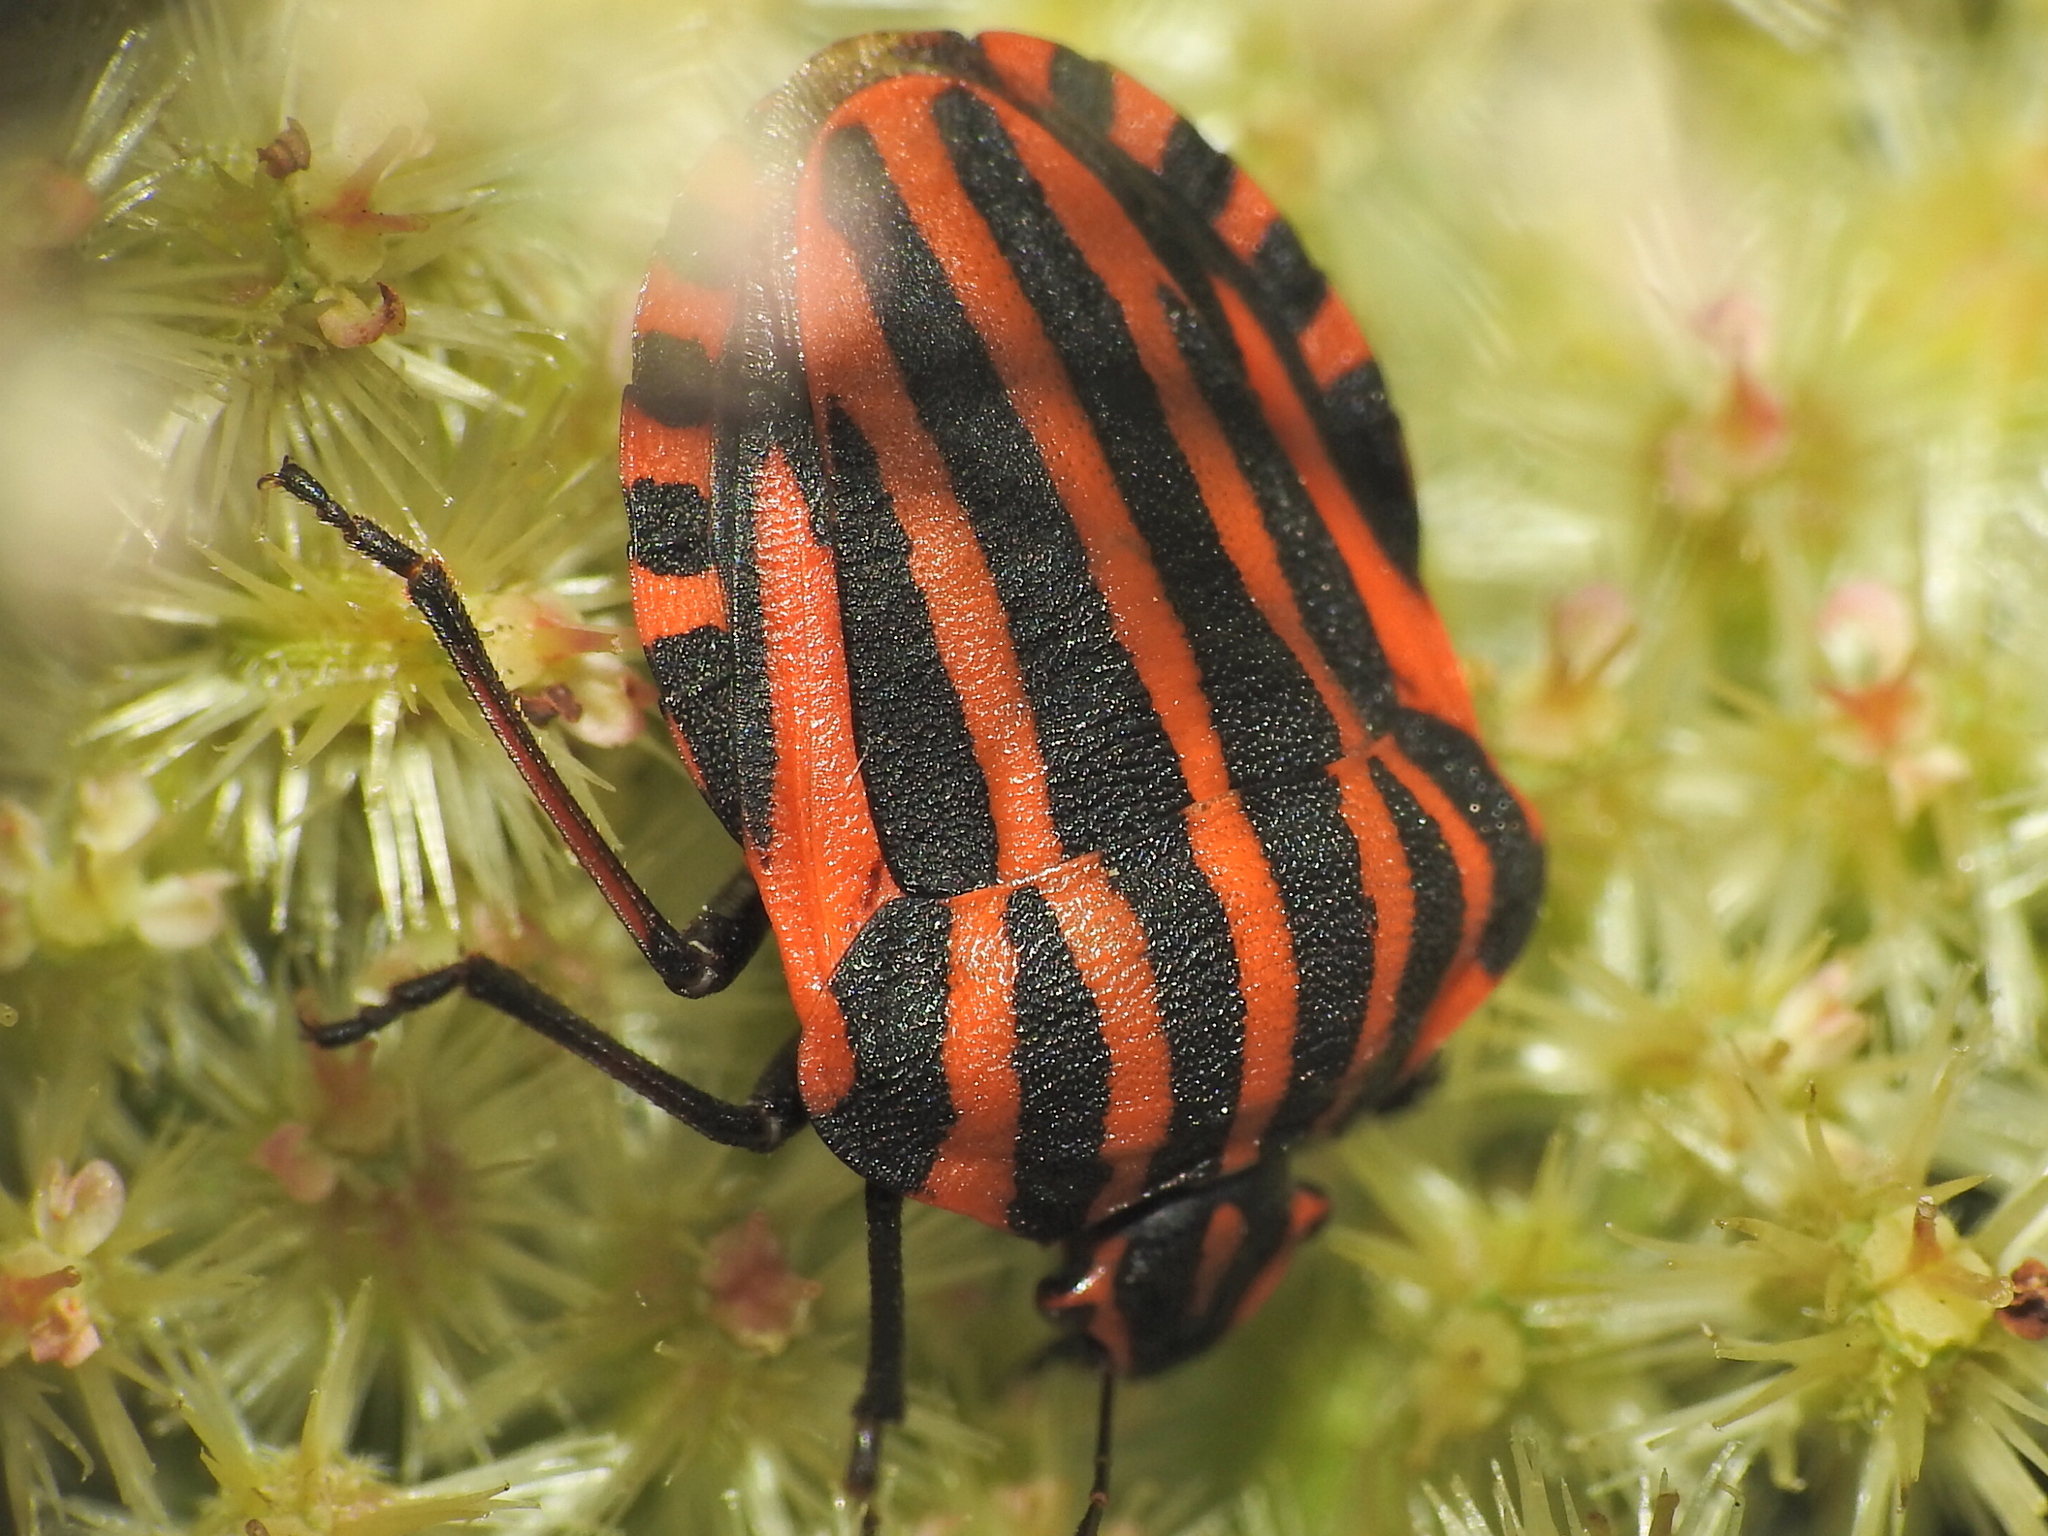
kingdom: Animalia
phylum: Arthropoda
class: Insecta
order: Hemiptera
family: Pentatomidae
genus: Graphosoma
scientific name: Graphosoma italicum
